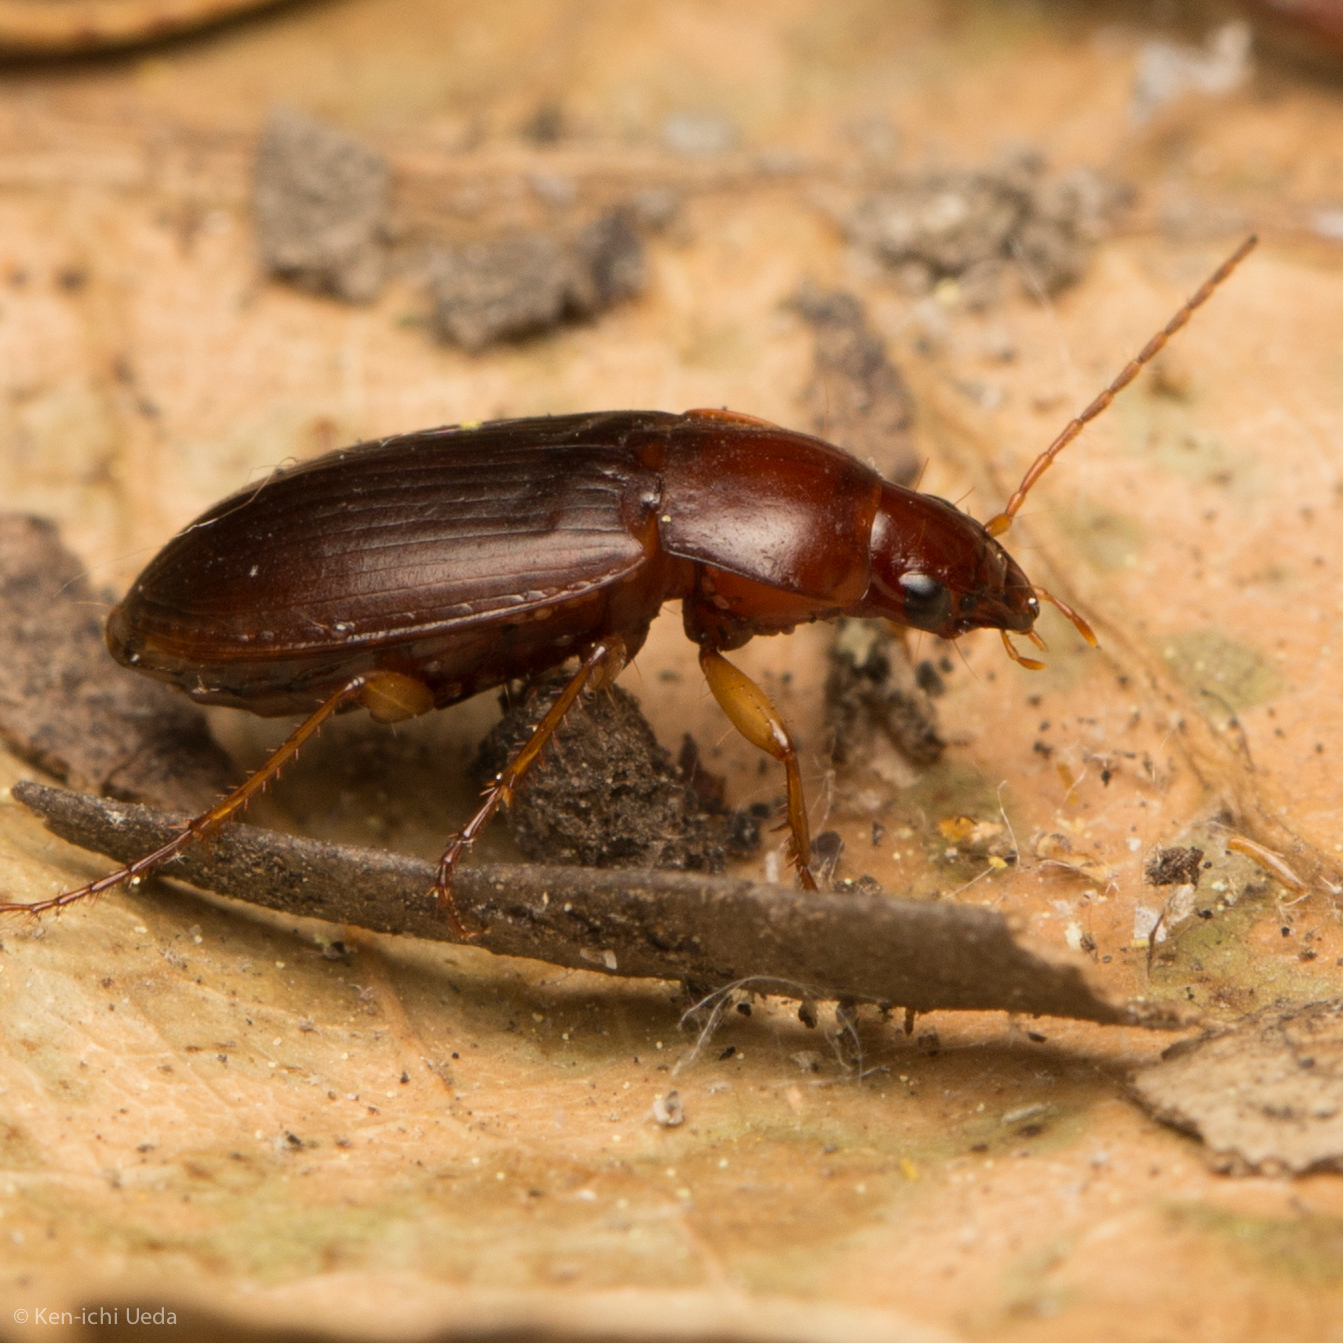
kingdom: Animalia
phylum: Arthropoda
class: Insecta
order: Coleoptera
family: Carabidae
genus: Calathus
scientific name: Calathus ruficollis
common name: Red-collared harp ground beetle
